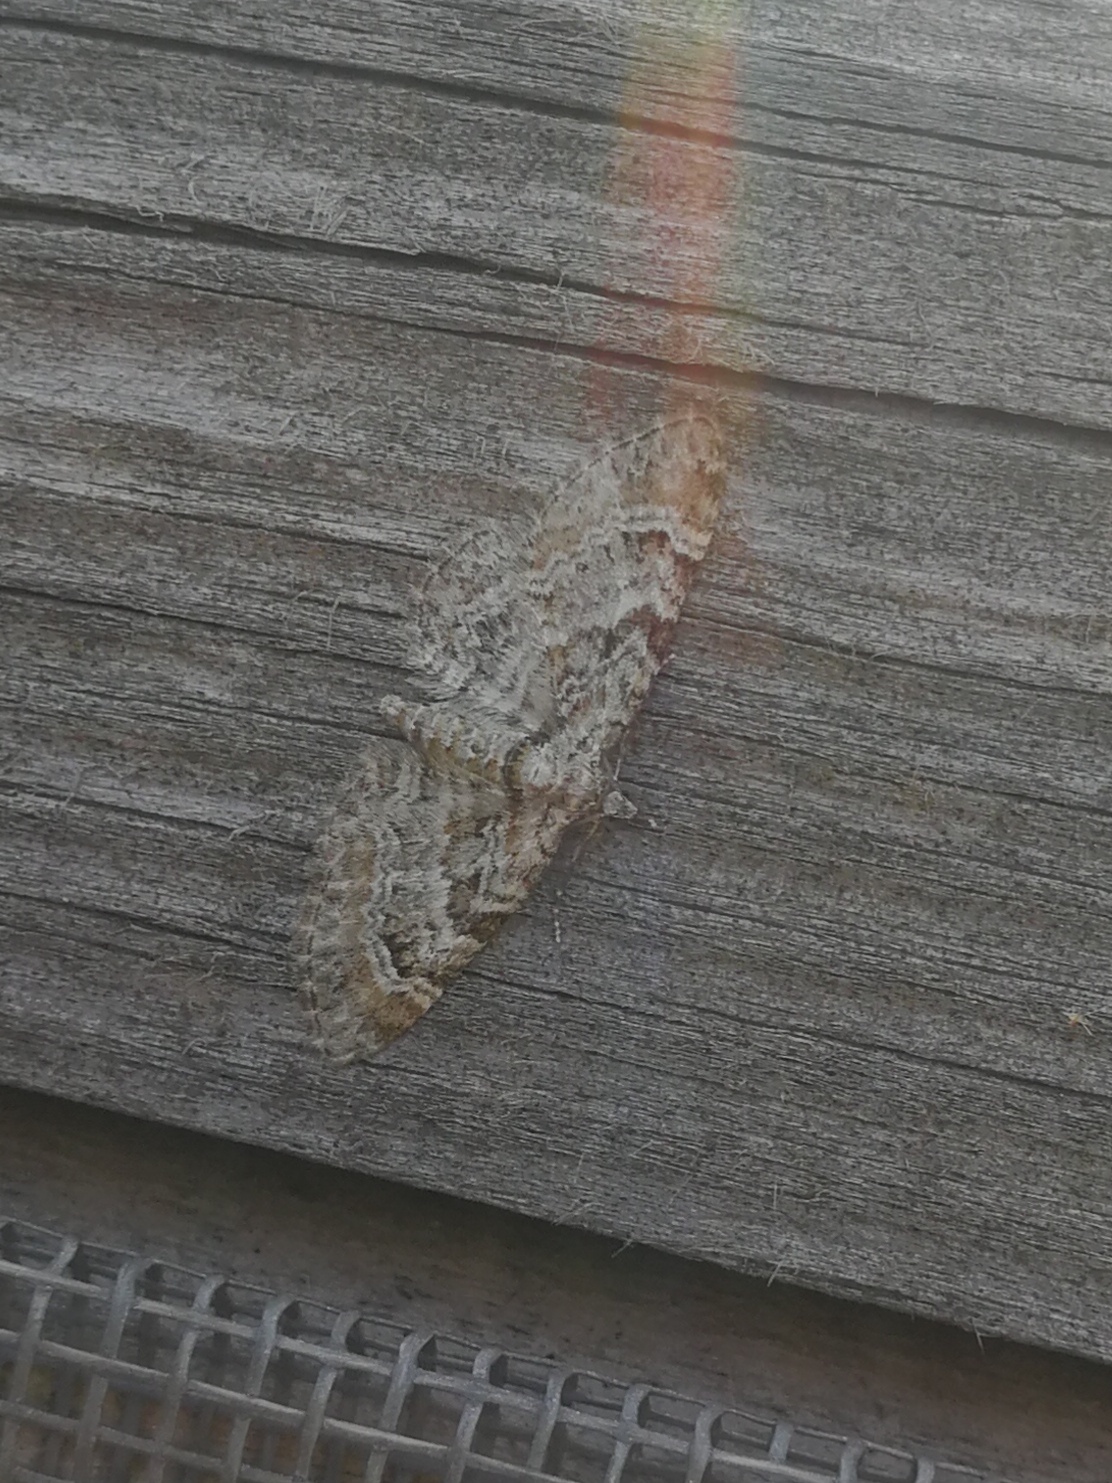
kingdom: Animalia
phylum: Arthropoda
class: Insecta
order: Lepidoptera
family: Geometridae
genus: Gymnoscelis
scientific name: Gymnoscelis rufifasciata
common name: Double-striped pug
